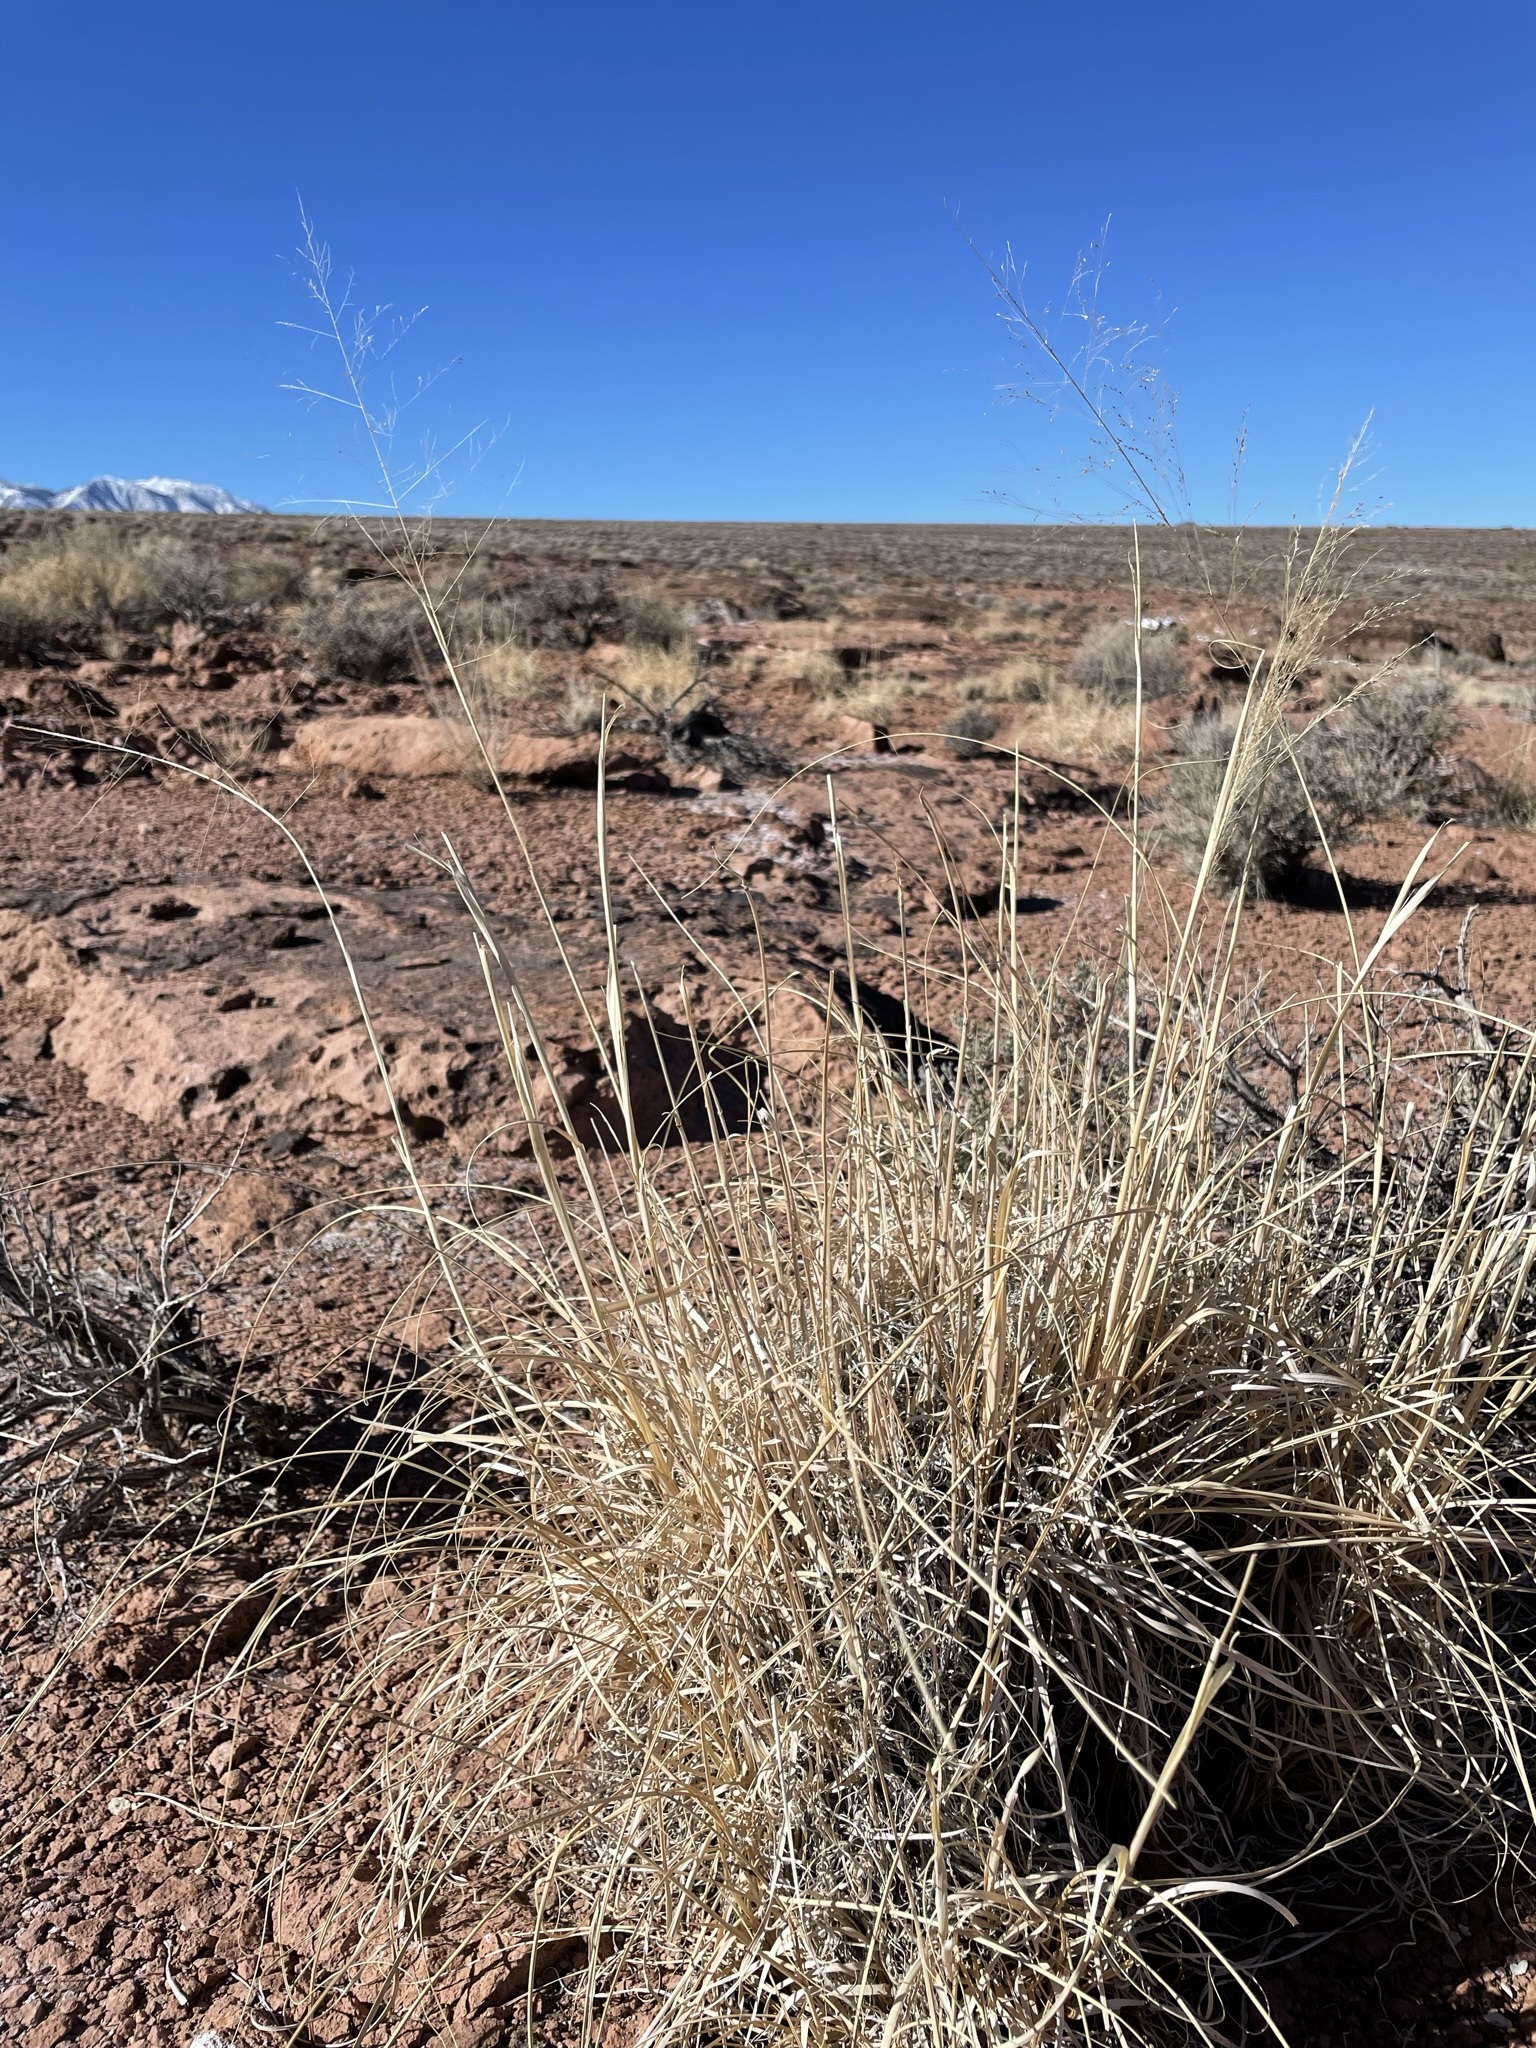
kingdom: Plantae
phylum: Tracheophyta
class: Liliopsida
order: Poales
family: Poaceae
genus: Sporobolus
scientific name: Sporobolus airoides
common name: Alkali sacaton
